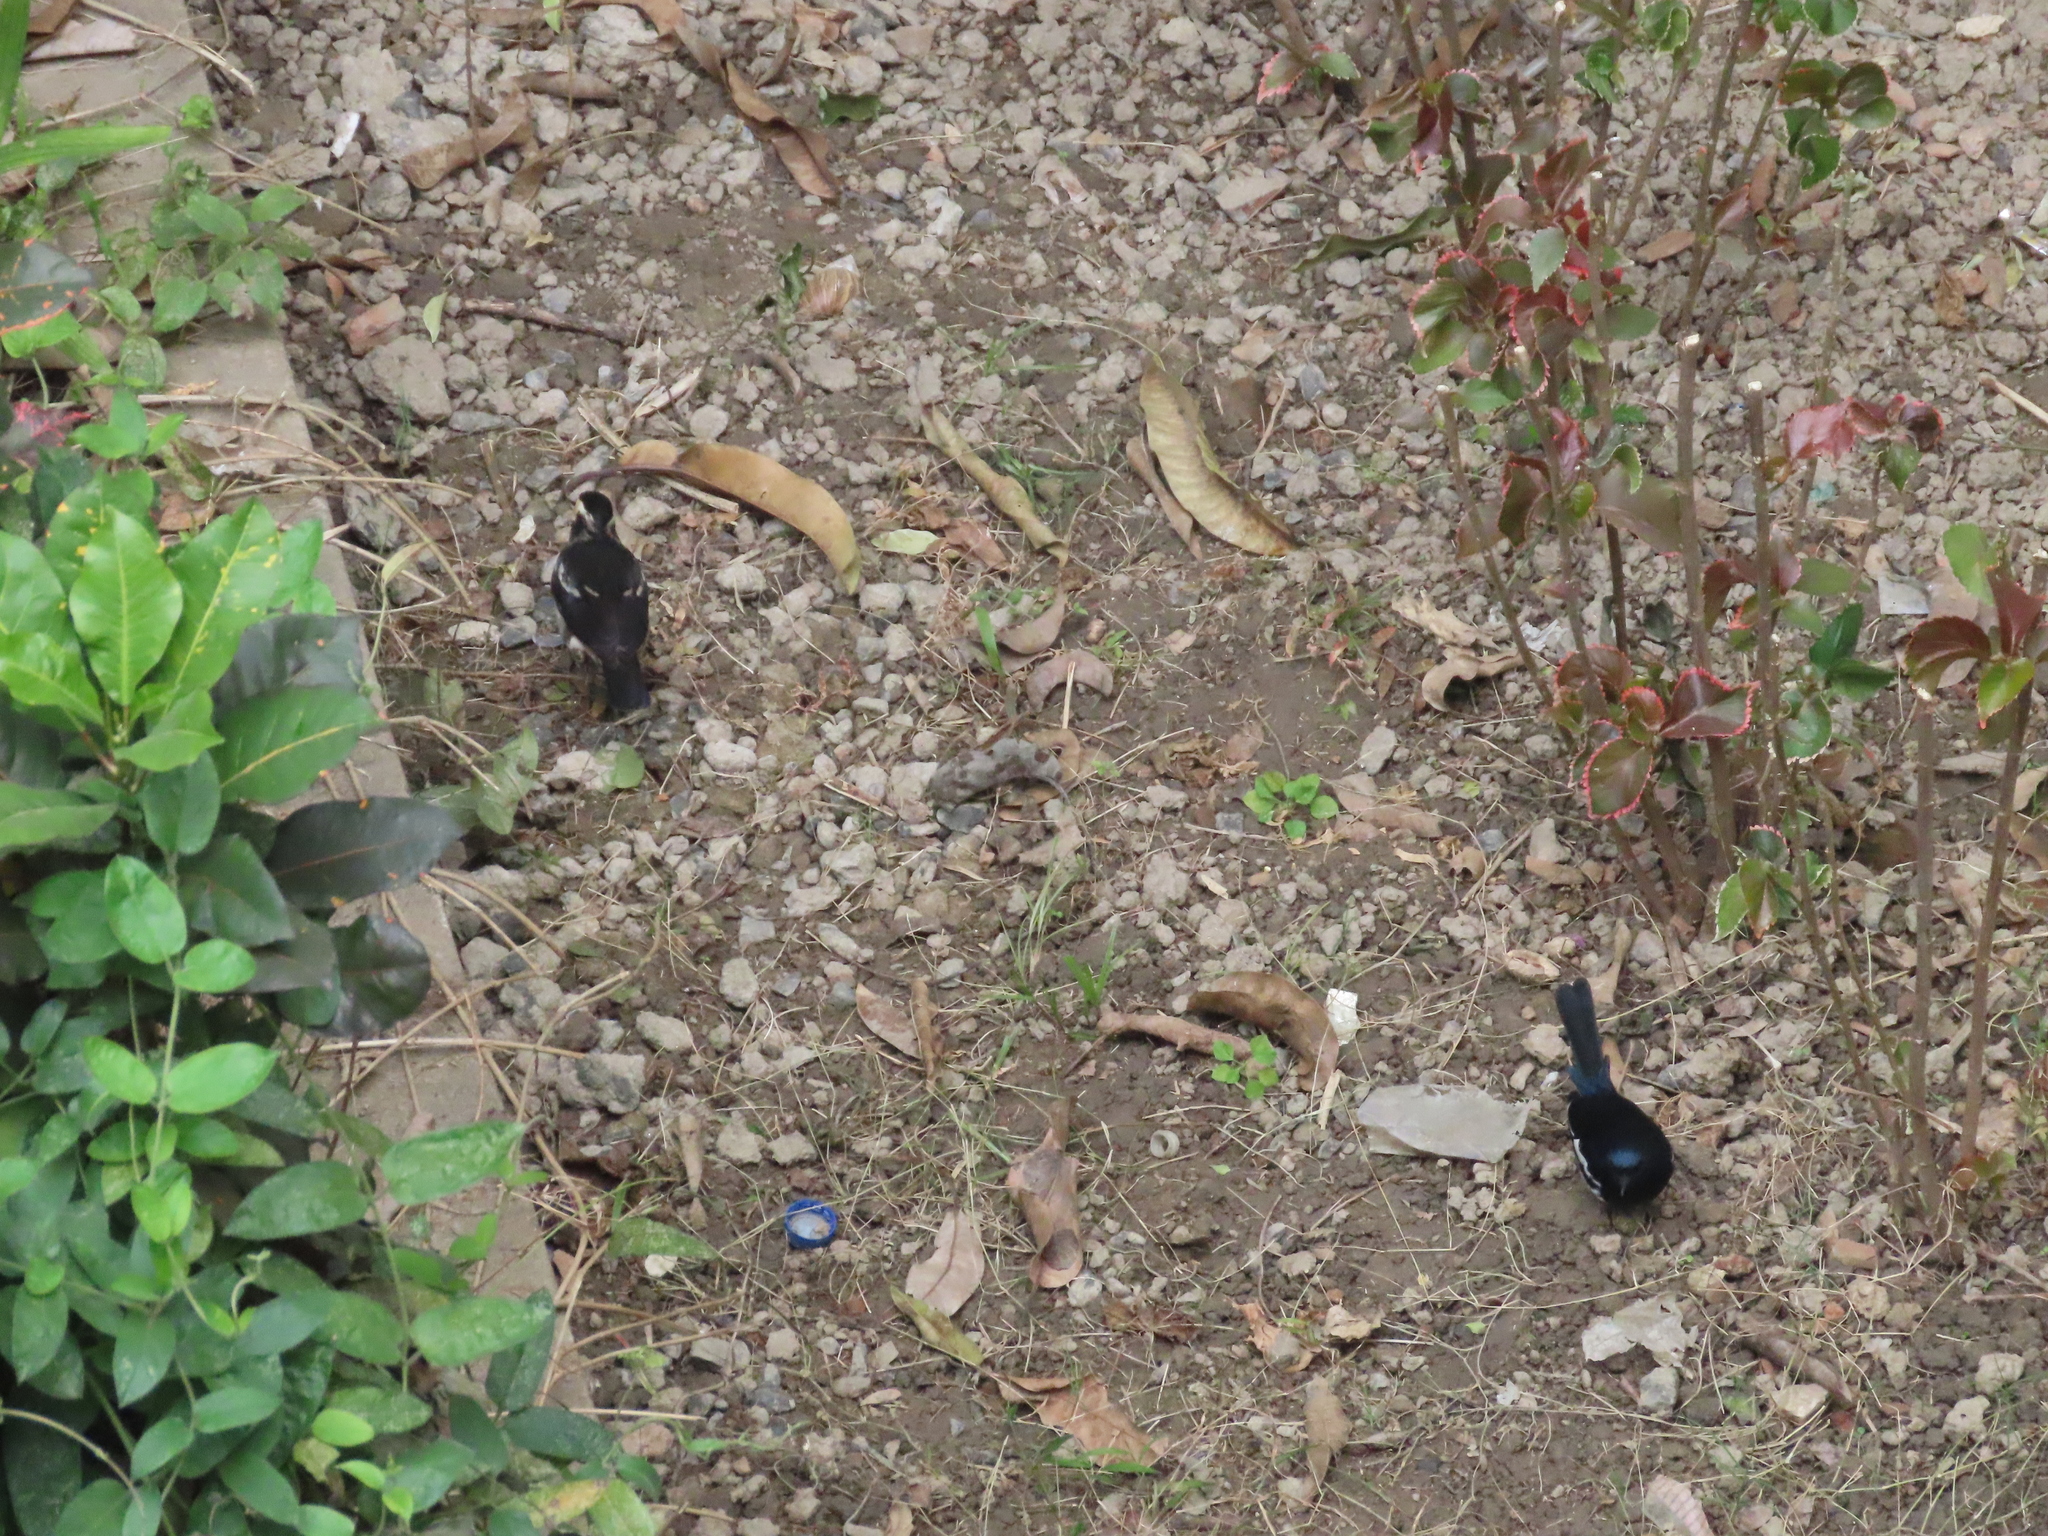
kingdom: Animalia
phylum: Chordata
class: Aves
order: Passeriformes
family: Muscicapidae
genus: Copsychus
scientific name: Copsychus saularis
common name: Oriental magpie-robin
